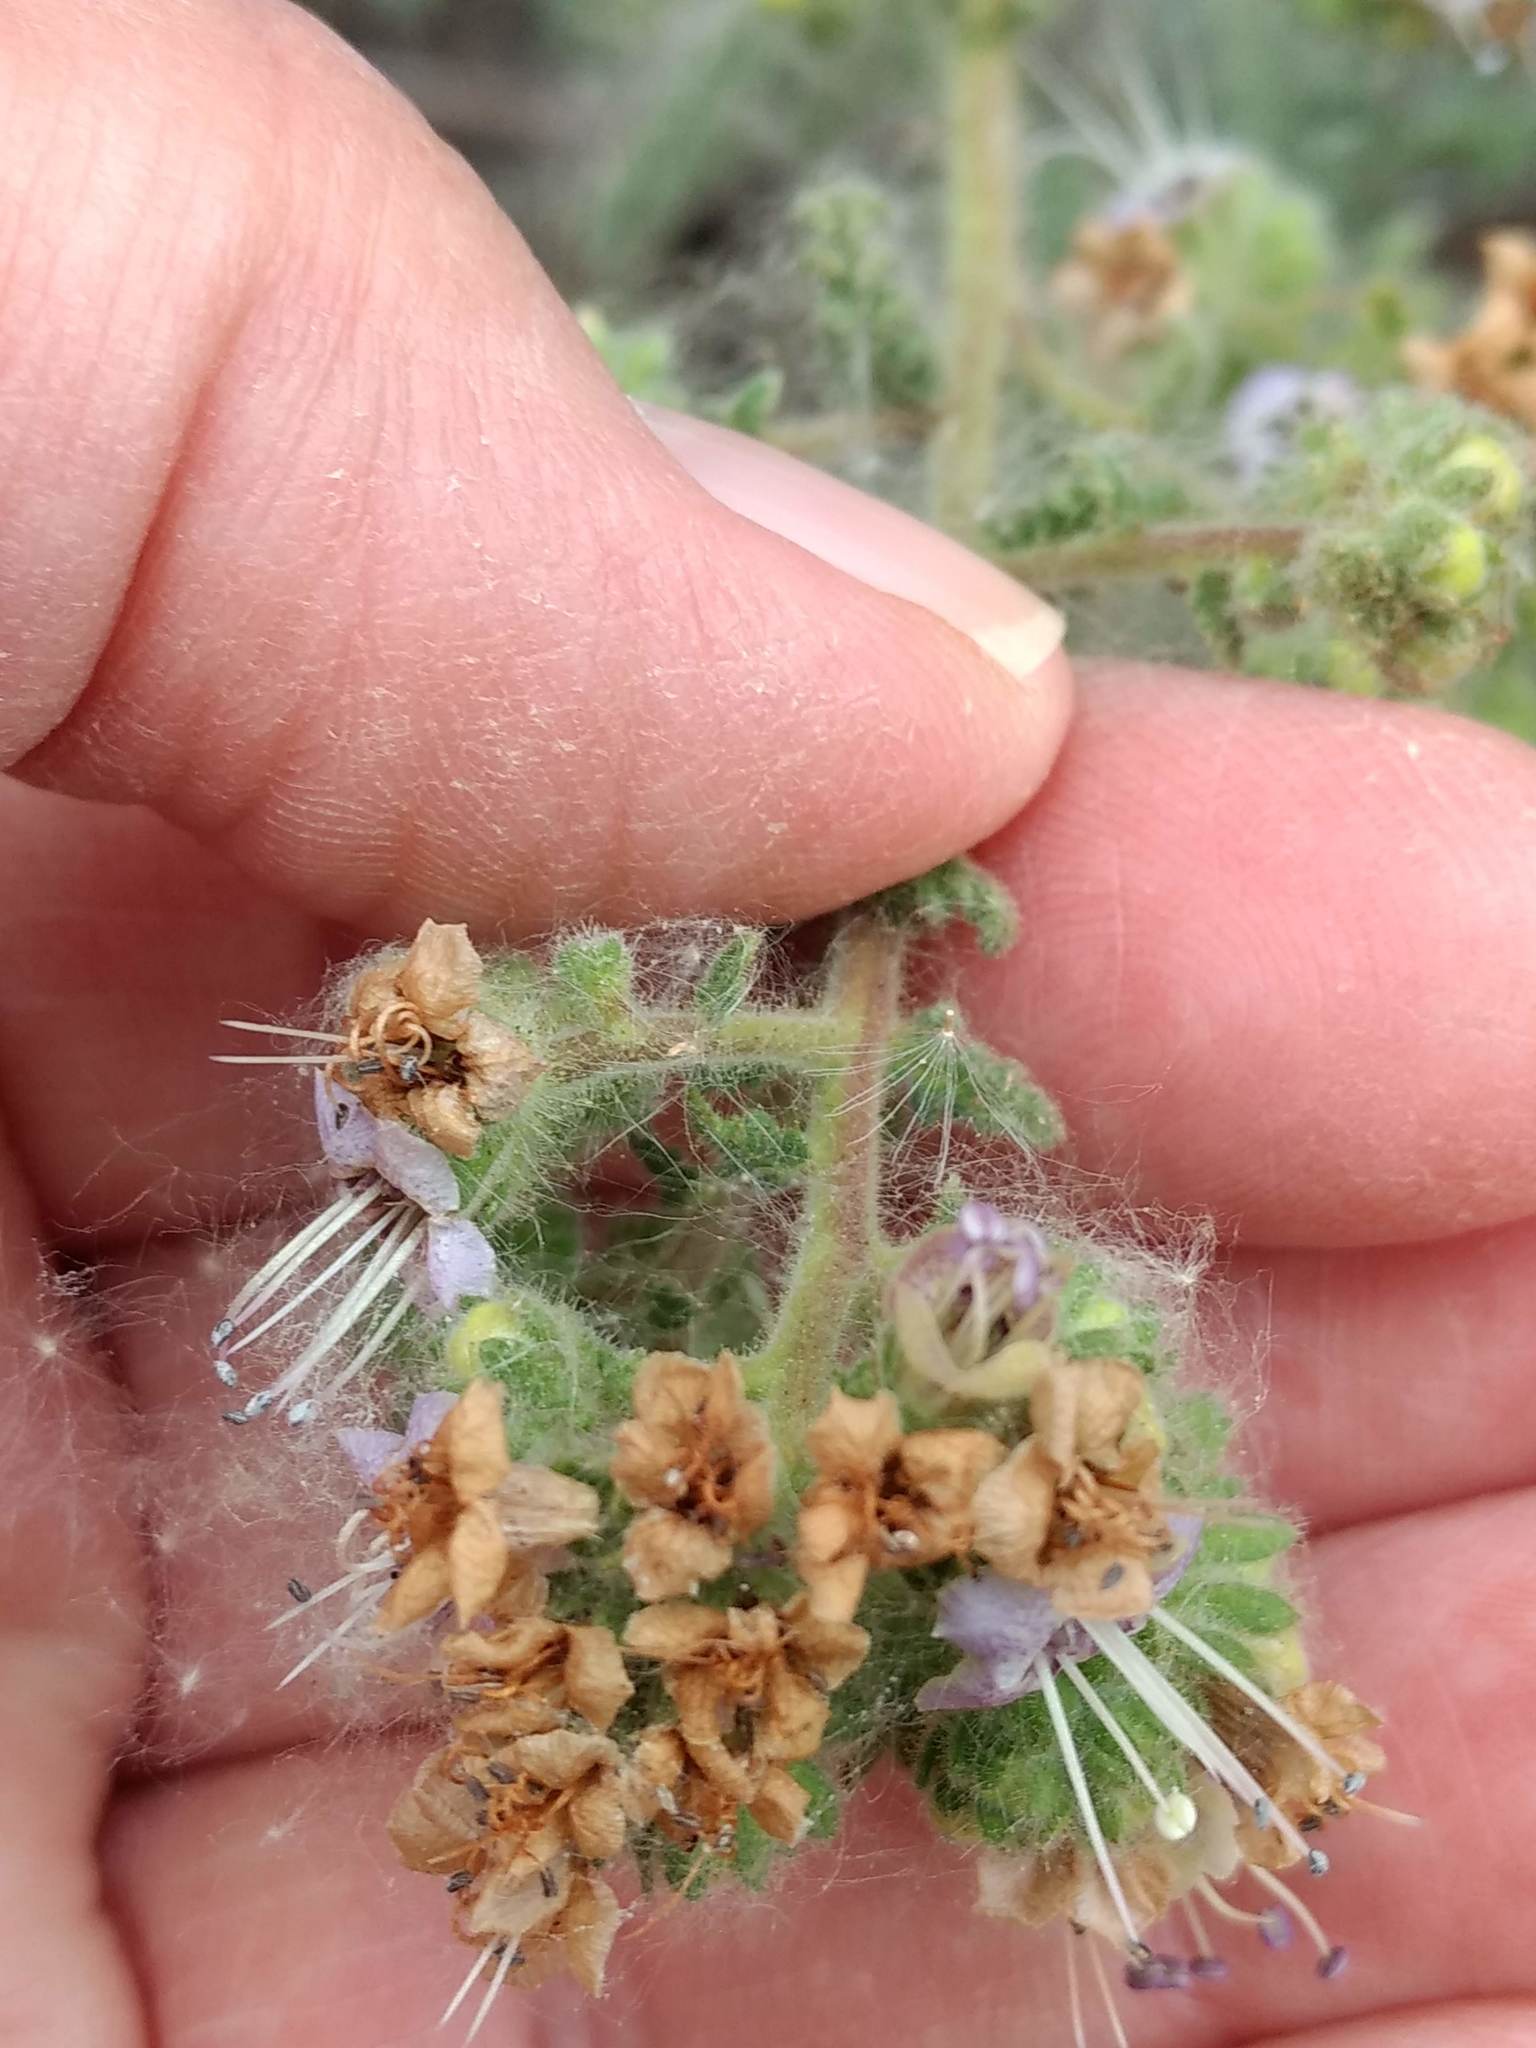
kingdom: Plantae
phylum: Tracheophyta
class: Magnoliopsida
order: Boraginales
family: Hydrophyllaceae
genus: Phacelia
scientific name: Phacelia ramosissima
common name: Branching phacelia
